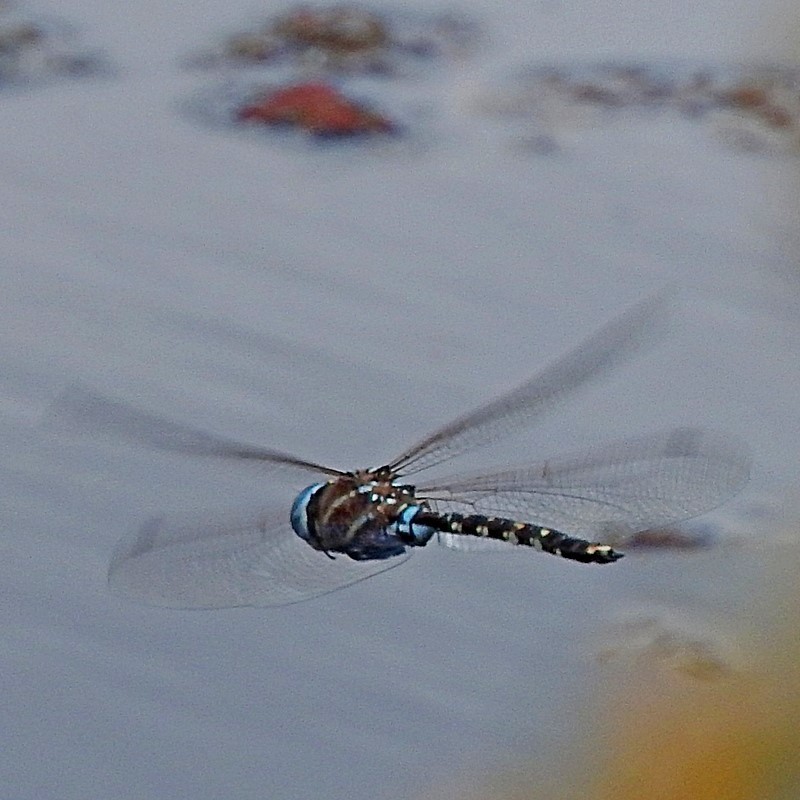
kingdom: Animalia
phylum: Arthropoda
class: Insecta
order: Odonata
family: Aeshnidae
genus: Aeshna
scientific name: Aeshna brevistyla
